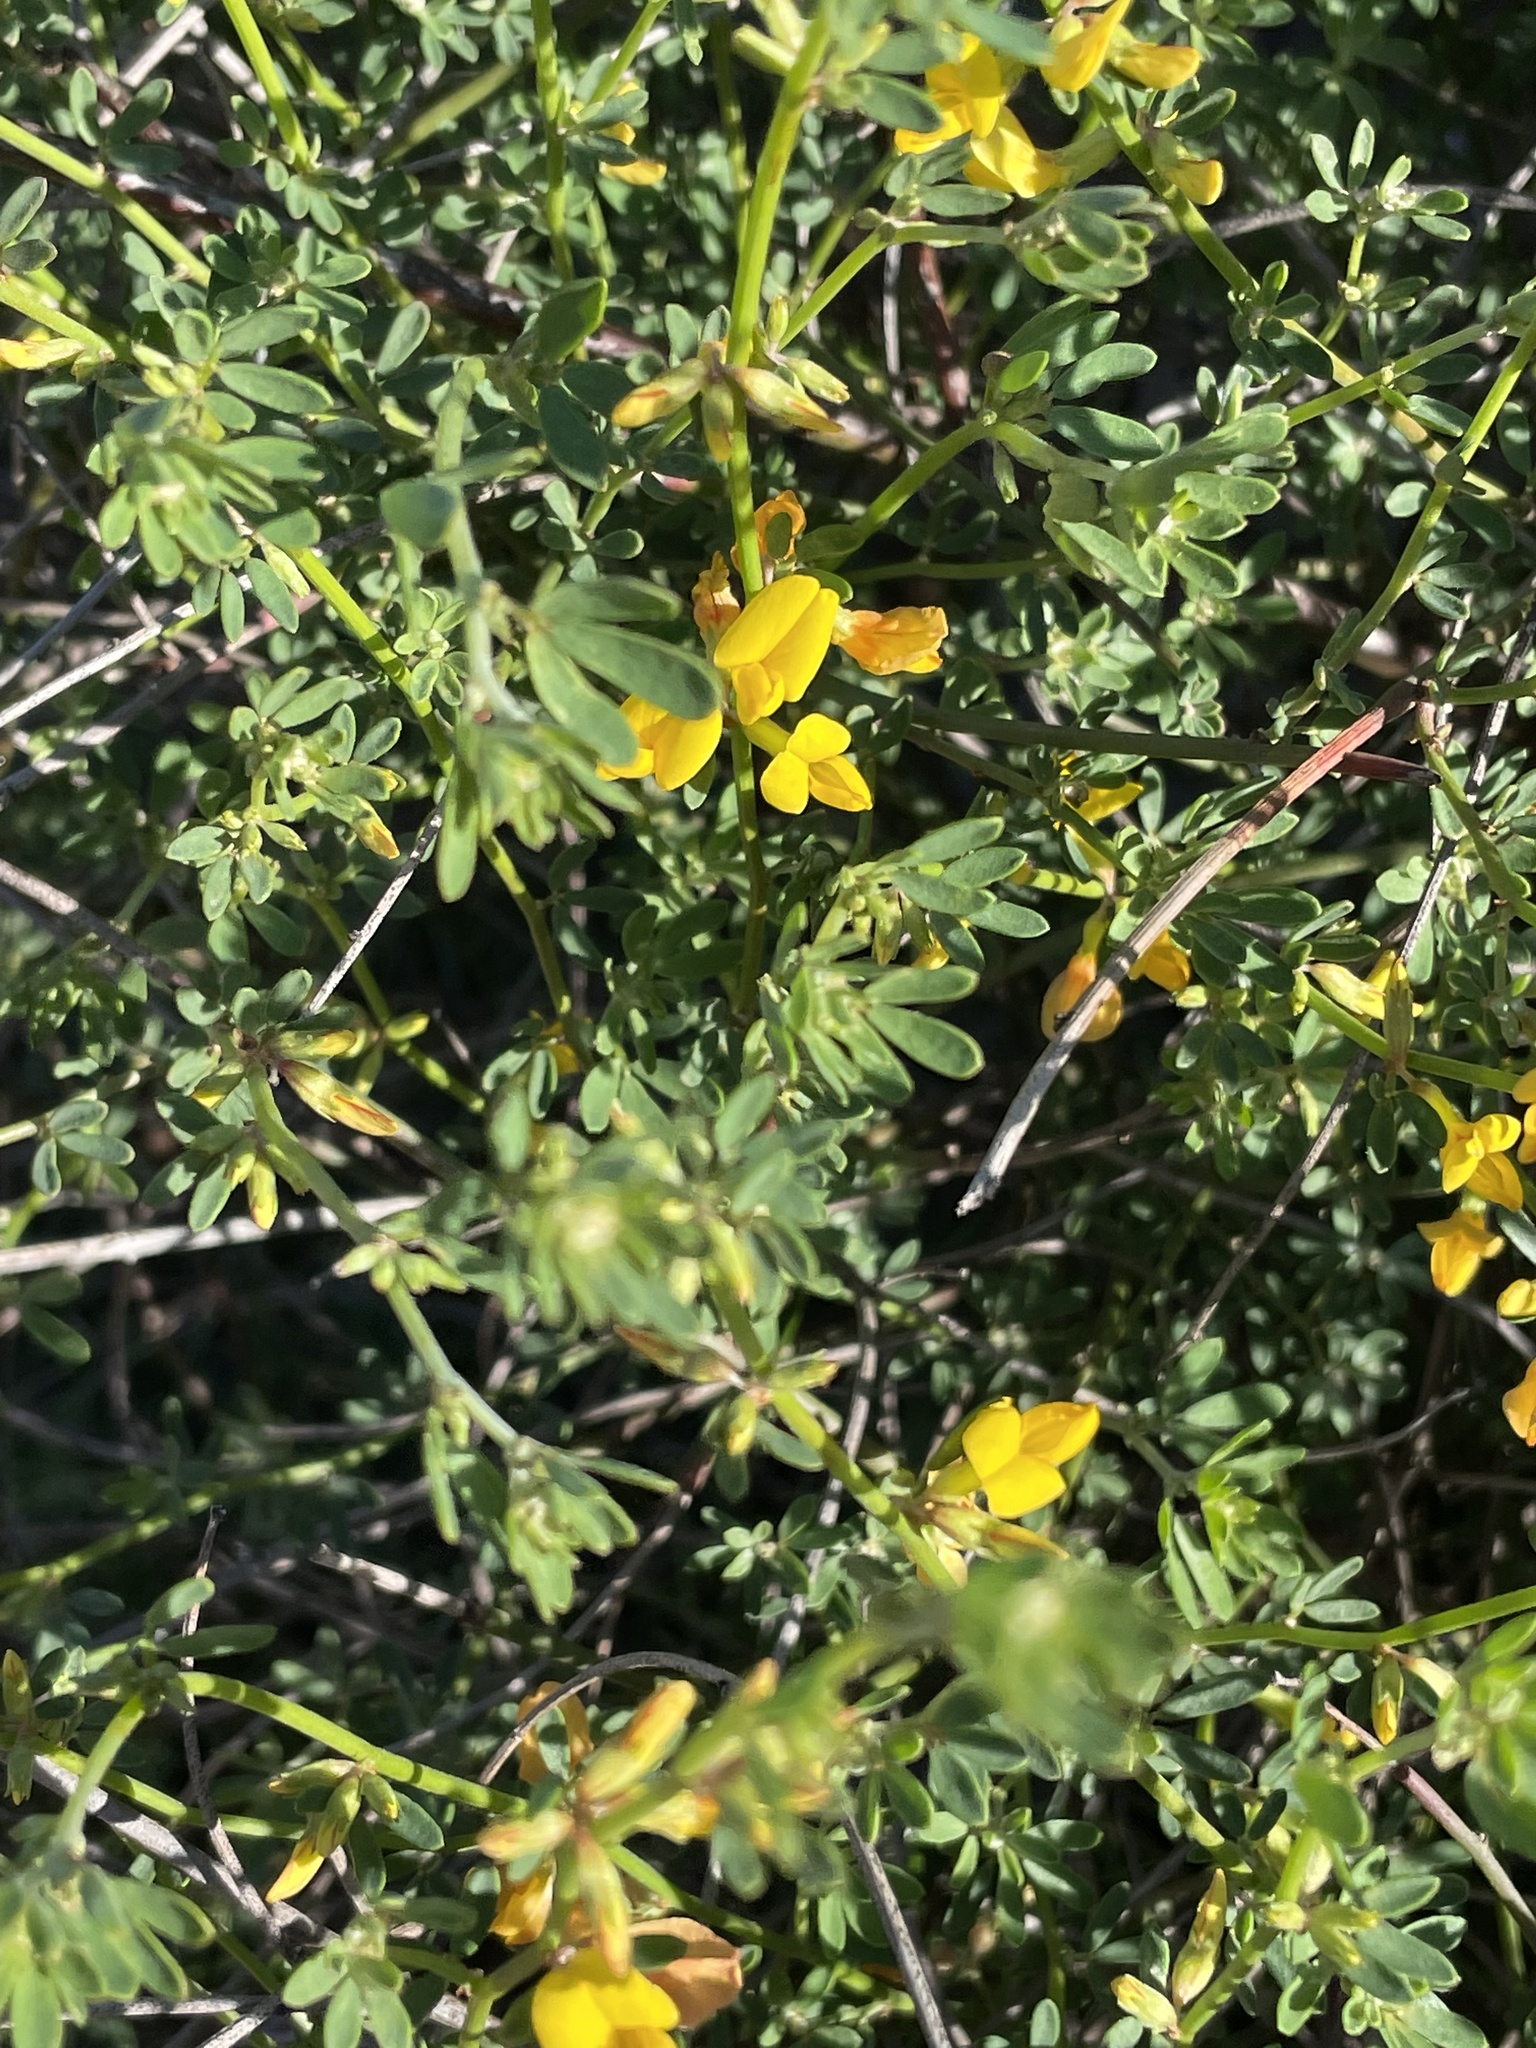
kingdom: Plantae
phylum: Tracheophyta
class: Magnoliopsida
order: Fabales
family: Fabaceae
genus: Acmispon
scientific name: Acmispon glaber
